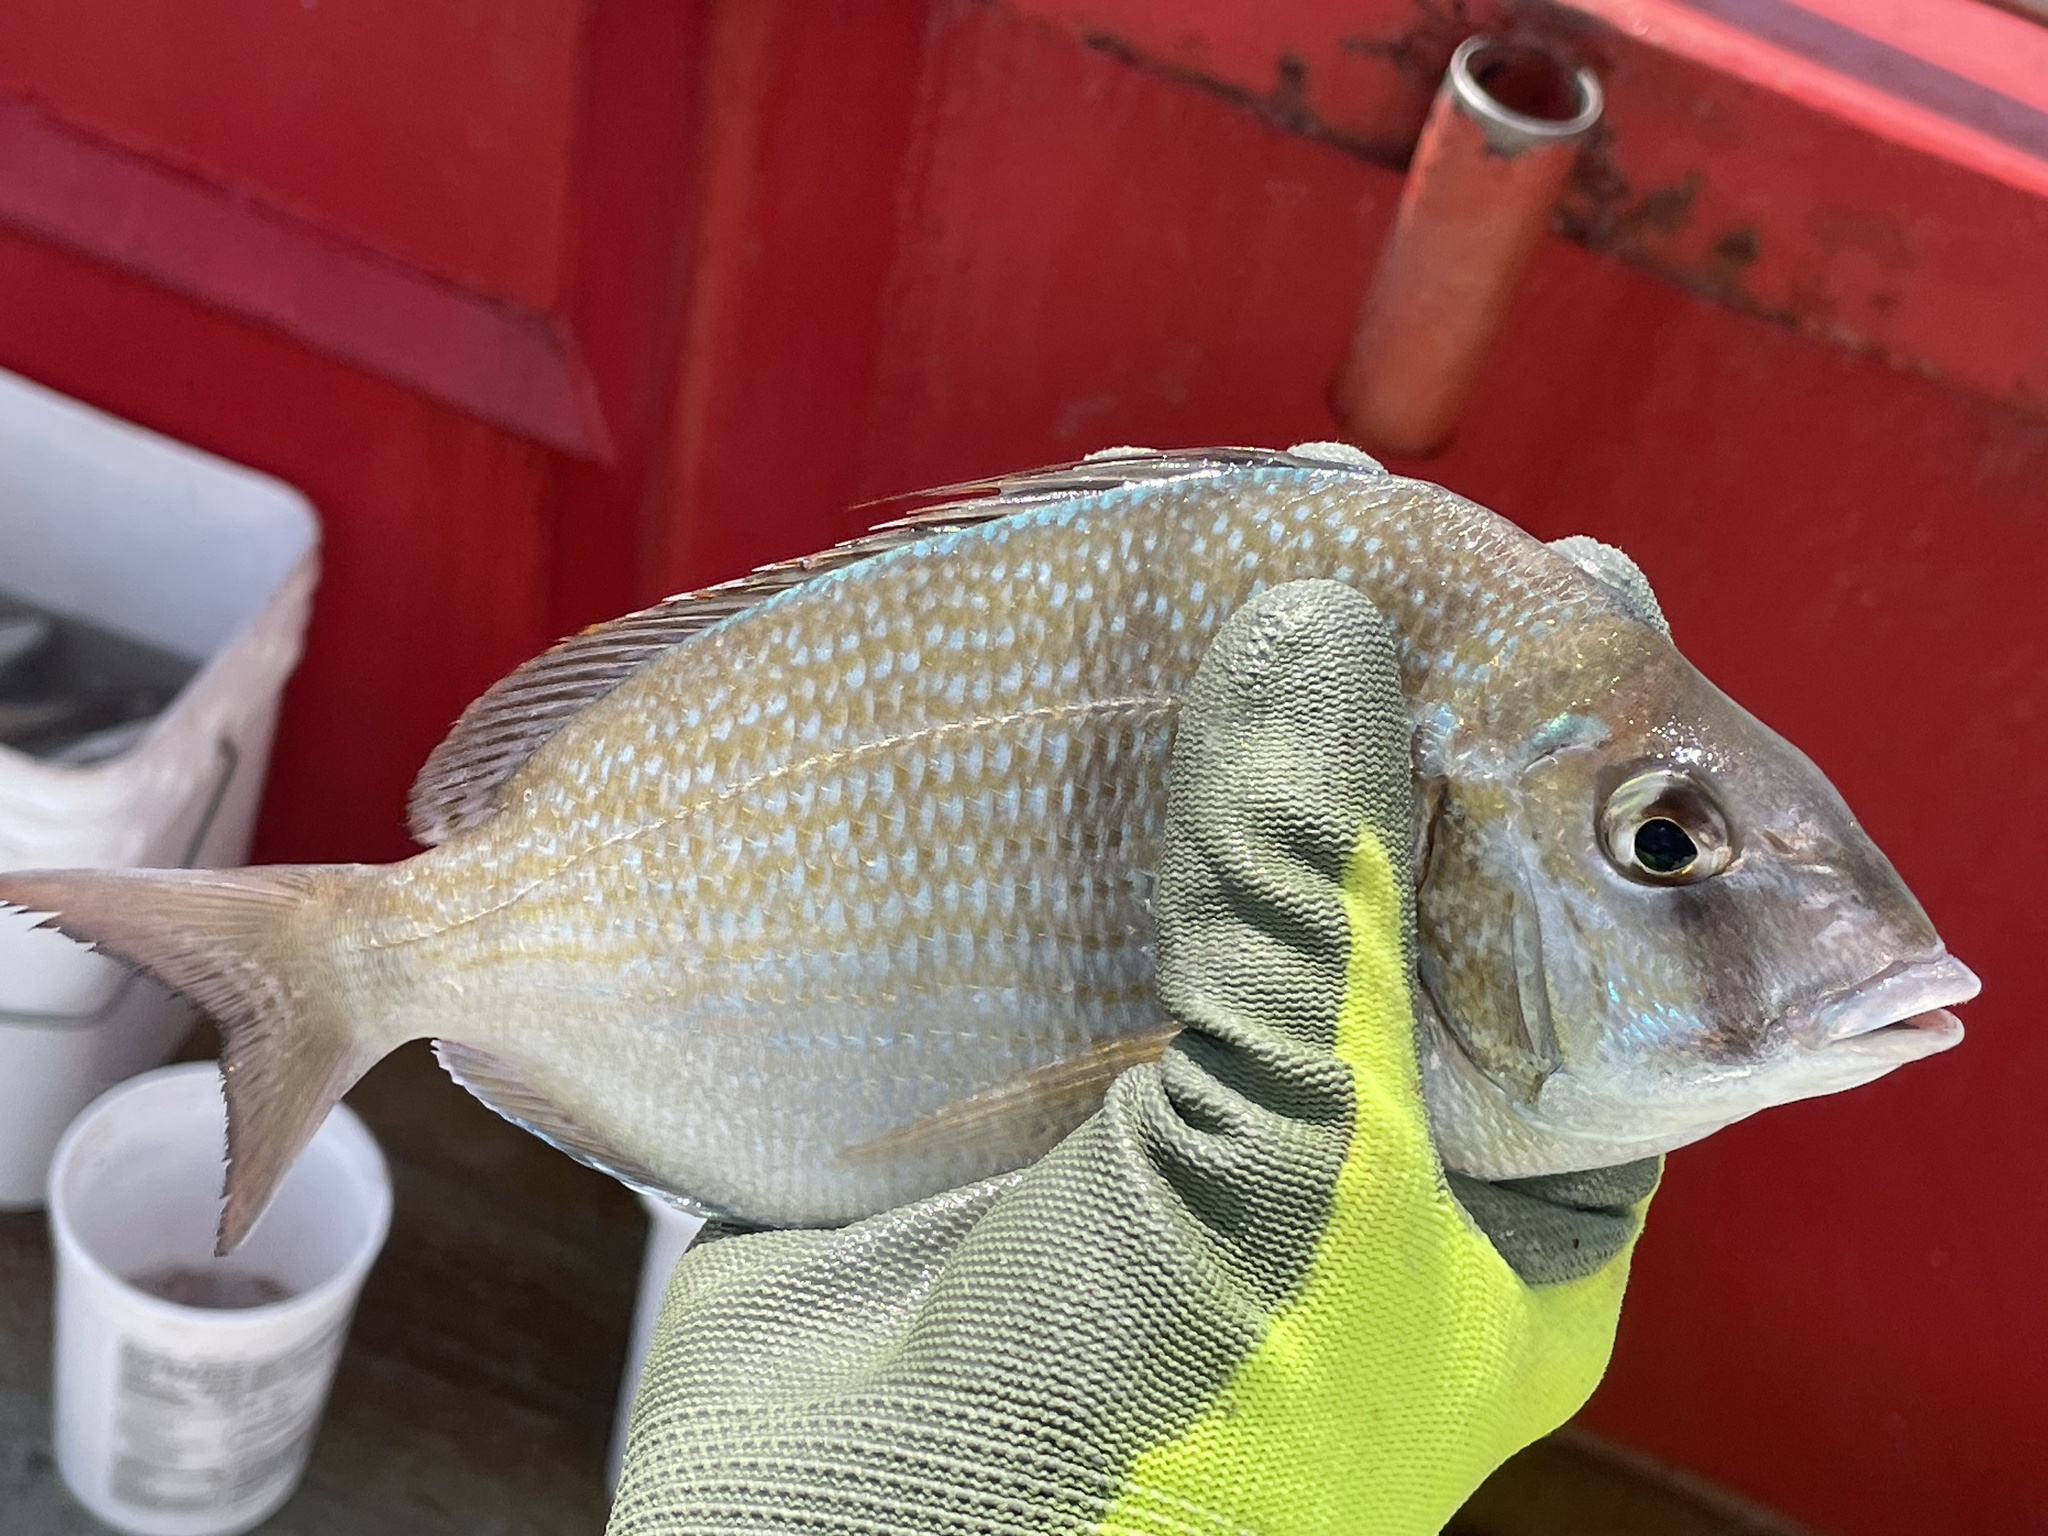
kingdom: Animalia
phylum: Chordata
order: Perciformes
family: Sparidae
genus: Stenotomus
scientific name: Stenotomus chrysops
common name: Scup
